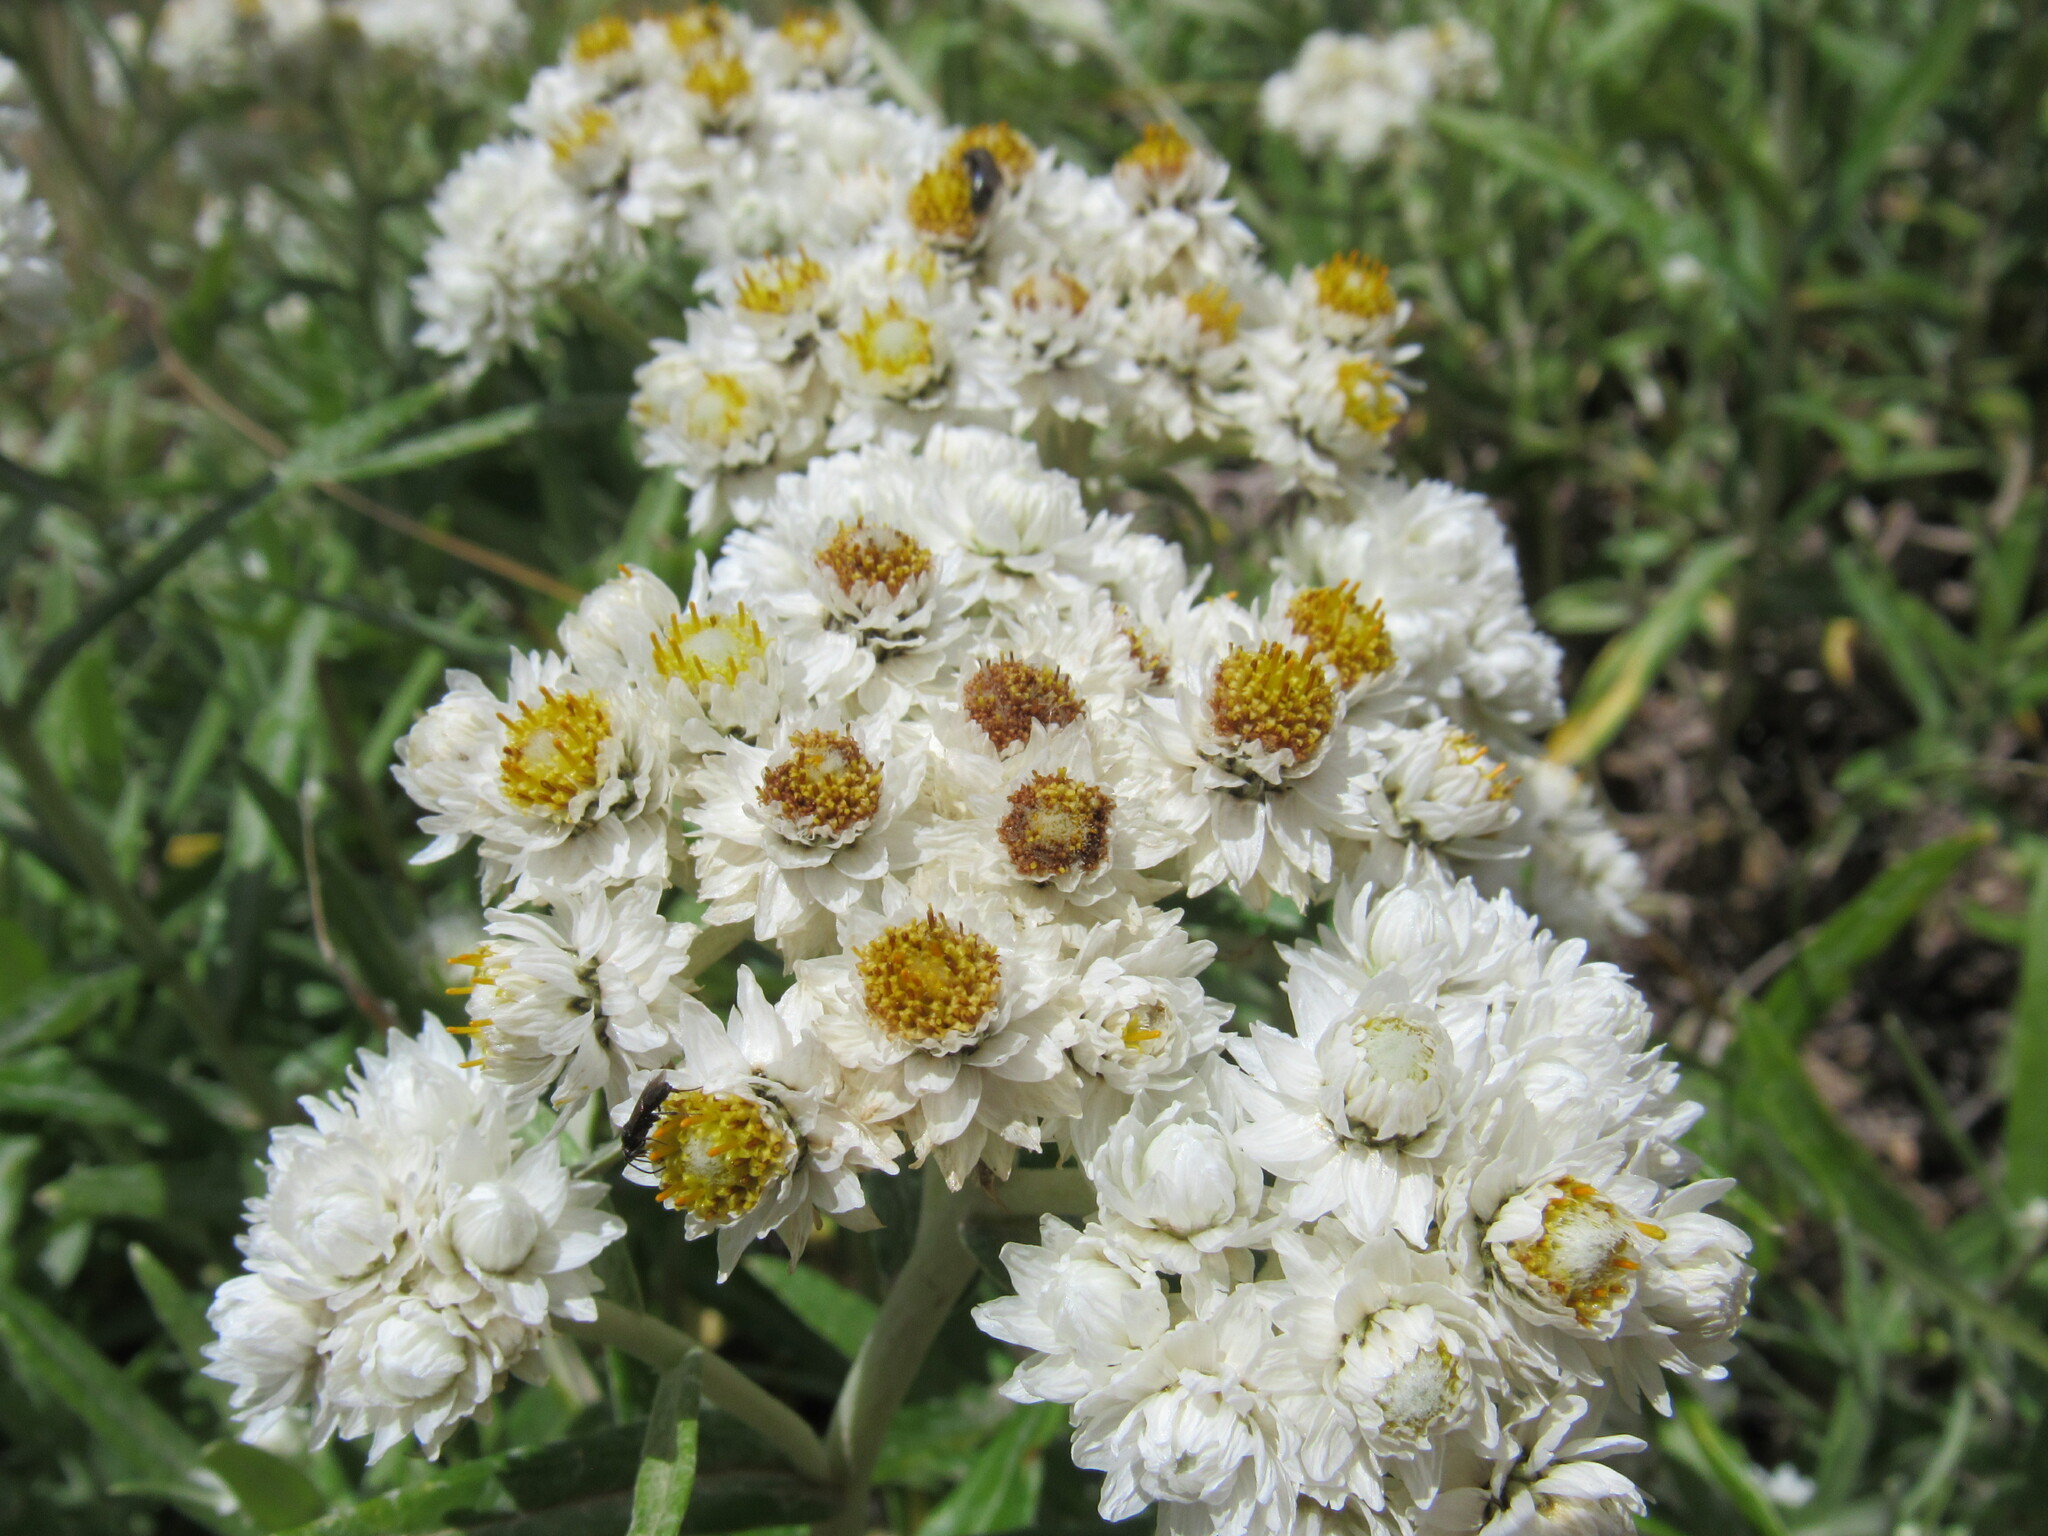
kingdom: Plantae
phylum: Tracheophyta
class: Magnoliopsida
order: Asterales
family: Asteraceae
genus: Anaphalis
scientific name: Anaphalis margaritacea
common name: Pearly everlasting
